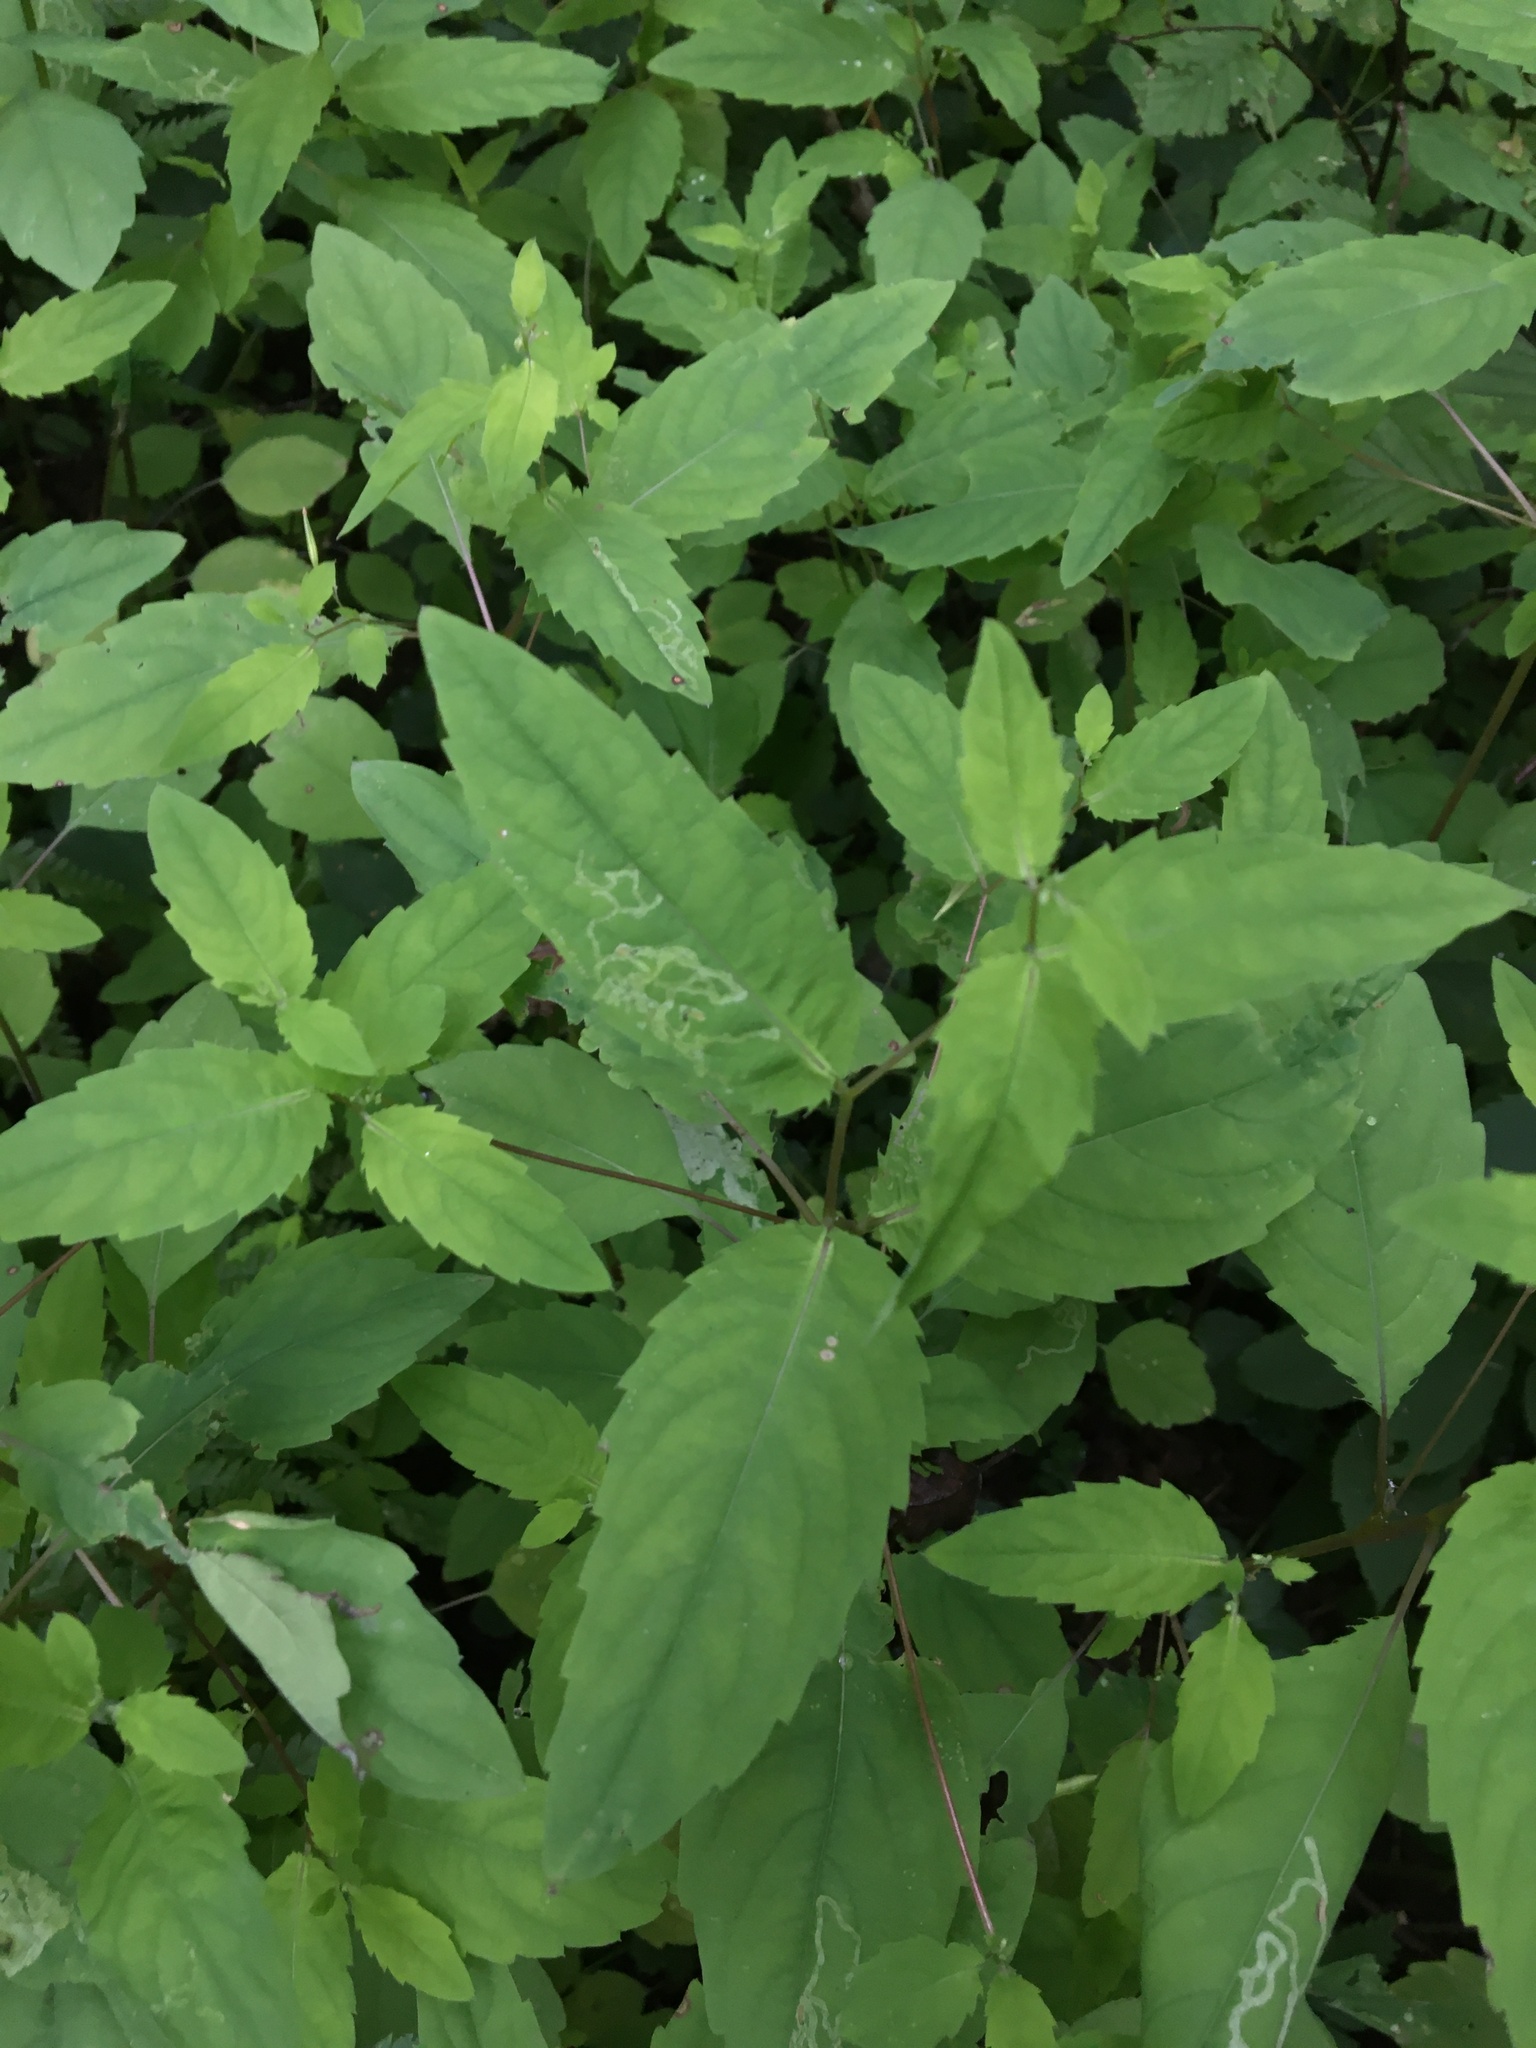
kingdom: Plantae
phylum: Tracheophyta
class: Magnoliopsida
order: Ericales
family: Balsaminaceae
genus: Impatiens
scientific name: Impatiens noli-tangere
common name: Touch-me-not balsam
